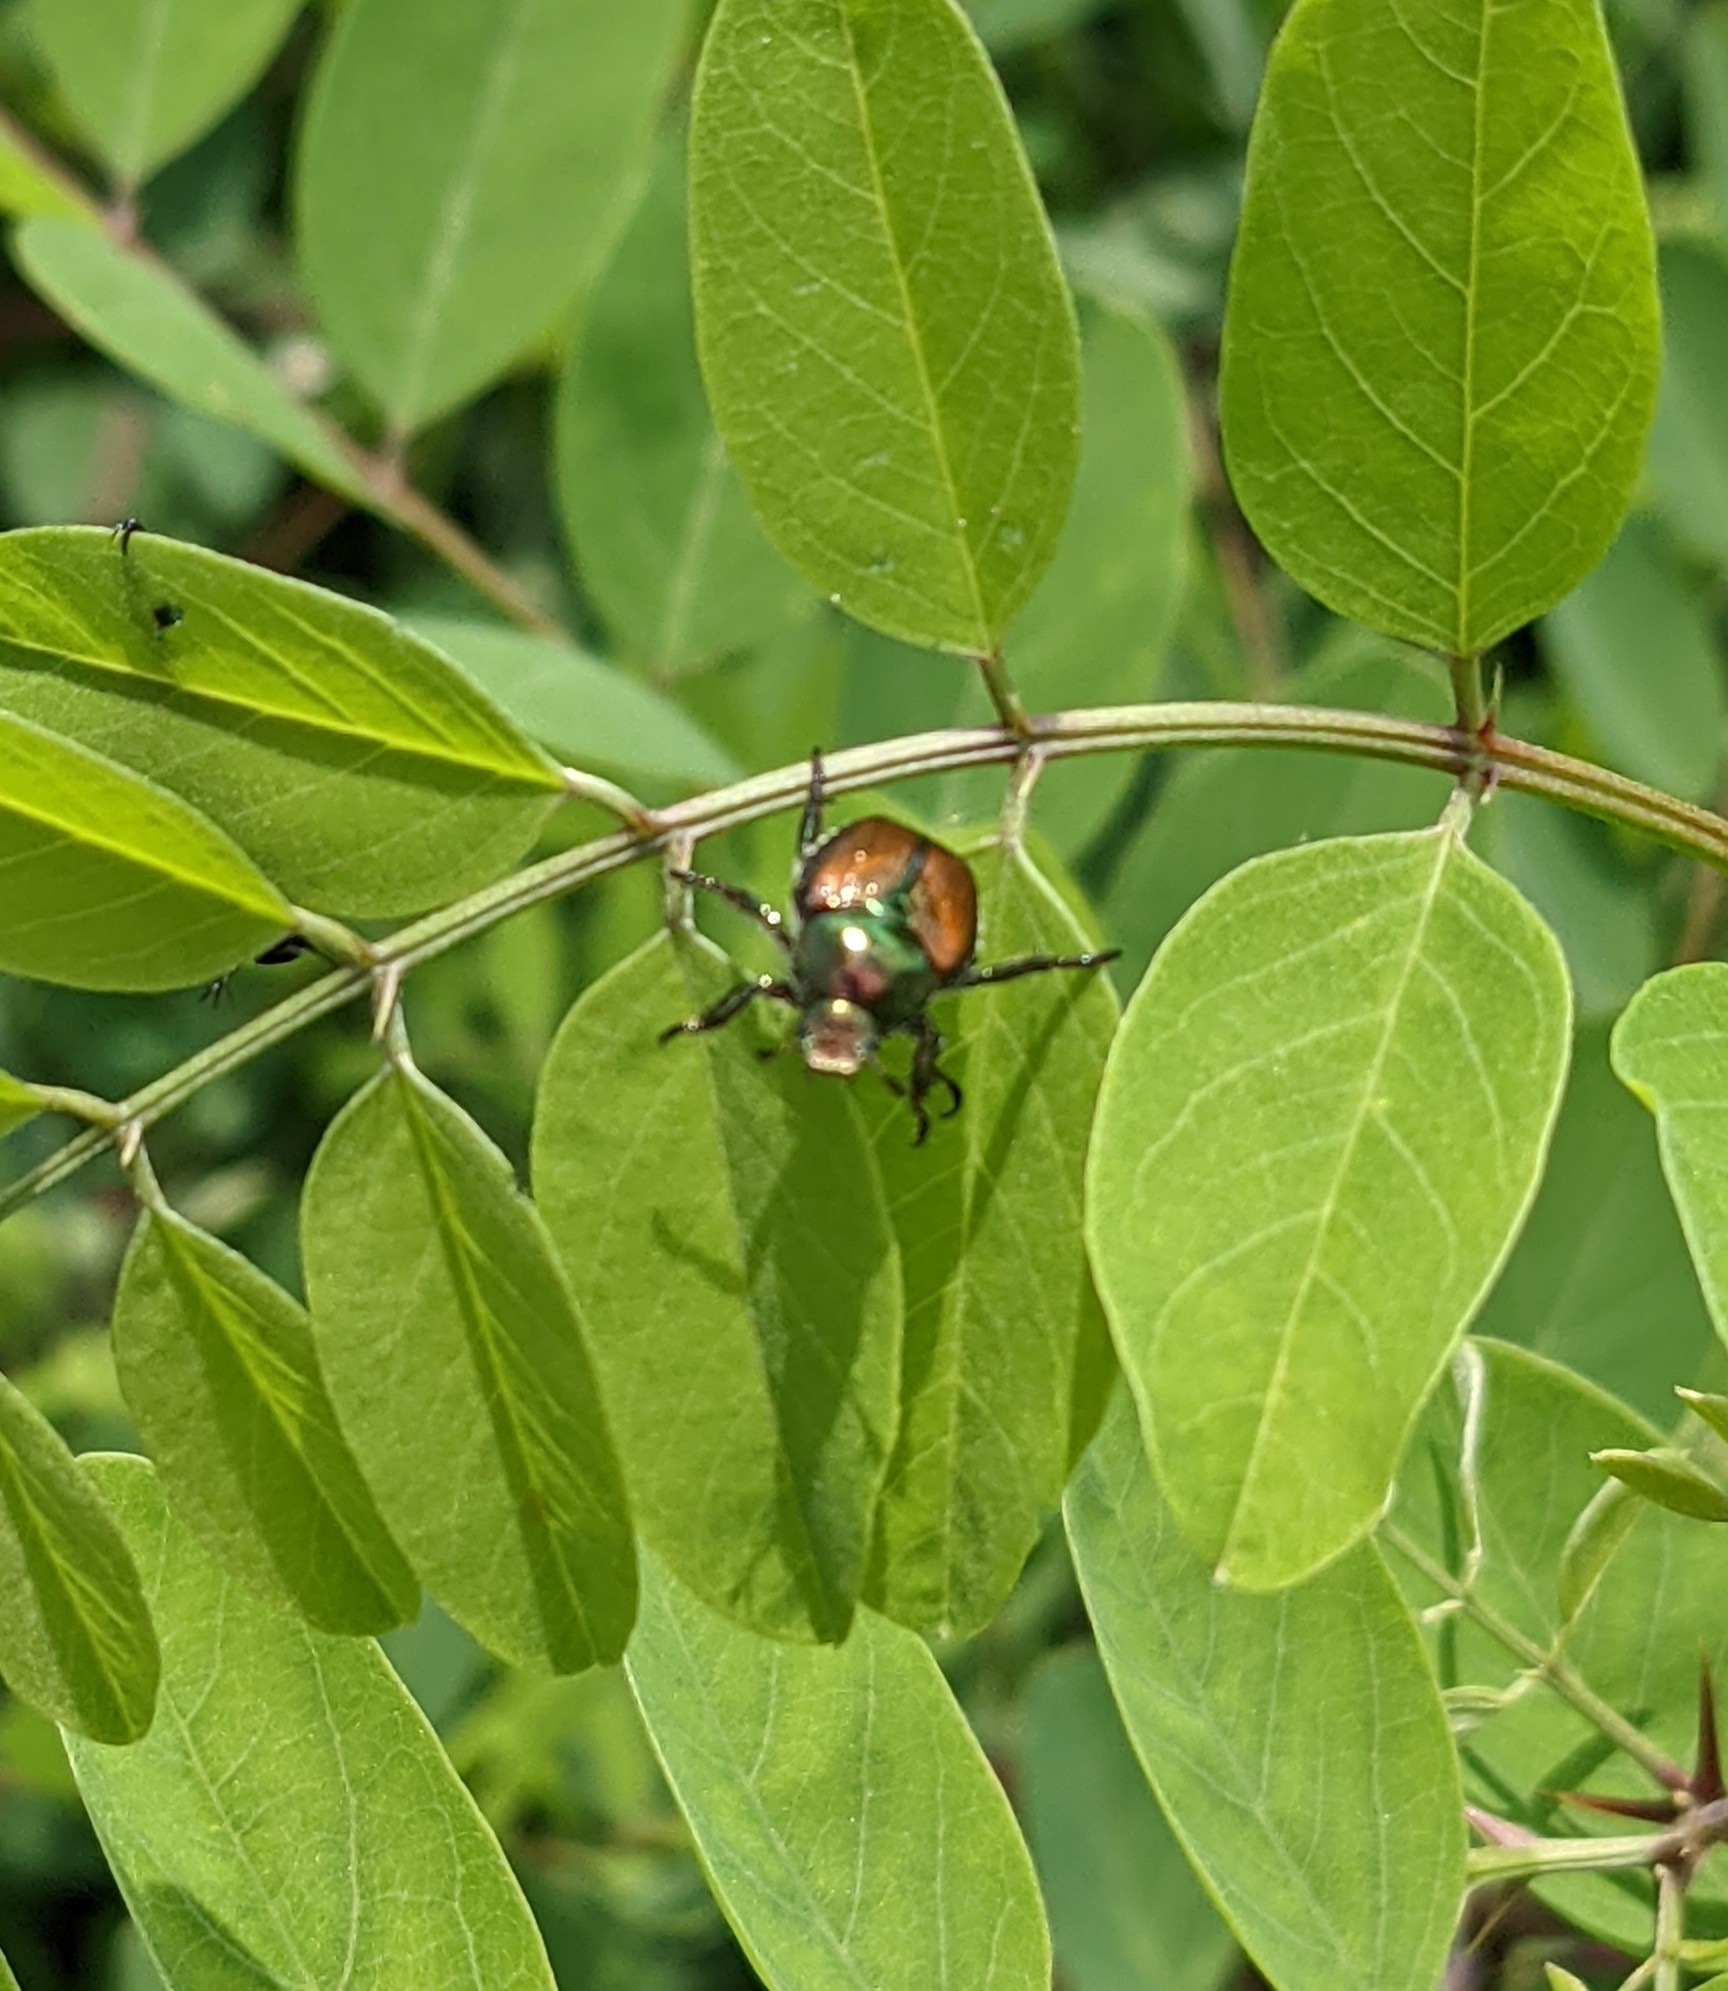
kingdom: Animalia
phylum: Arthropoda
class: Insecta
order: Coleoptera
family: Scarabaeidae
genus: Popillia
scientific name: Popillia japonica
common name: Japanese beetle
